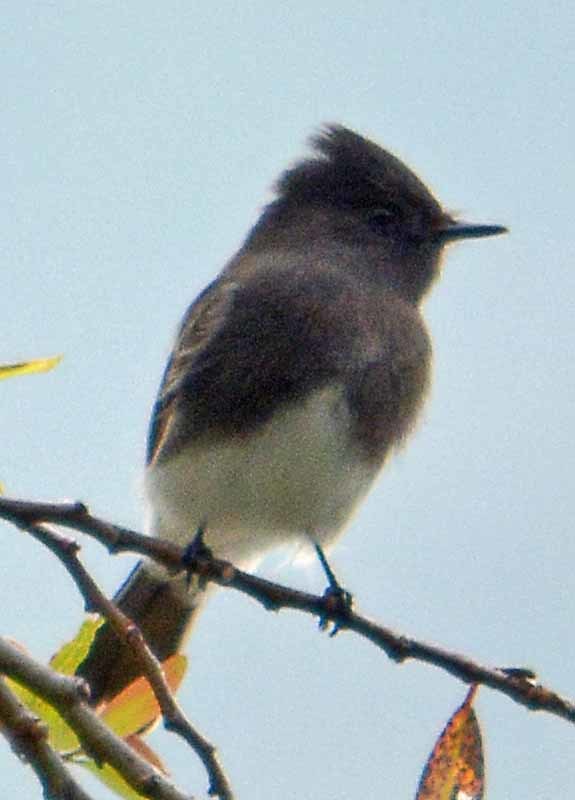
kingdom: Animalia
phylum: Chordata
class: Aves
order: Passeriformes
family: Tyrannidae
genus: Sayornis
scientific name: Sayornis nigricans
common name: Black phoebe
